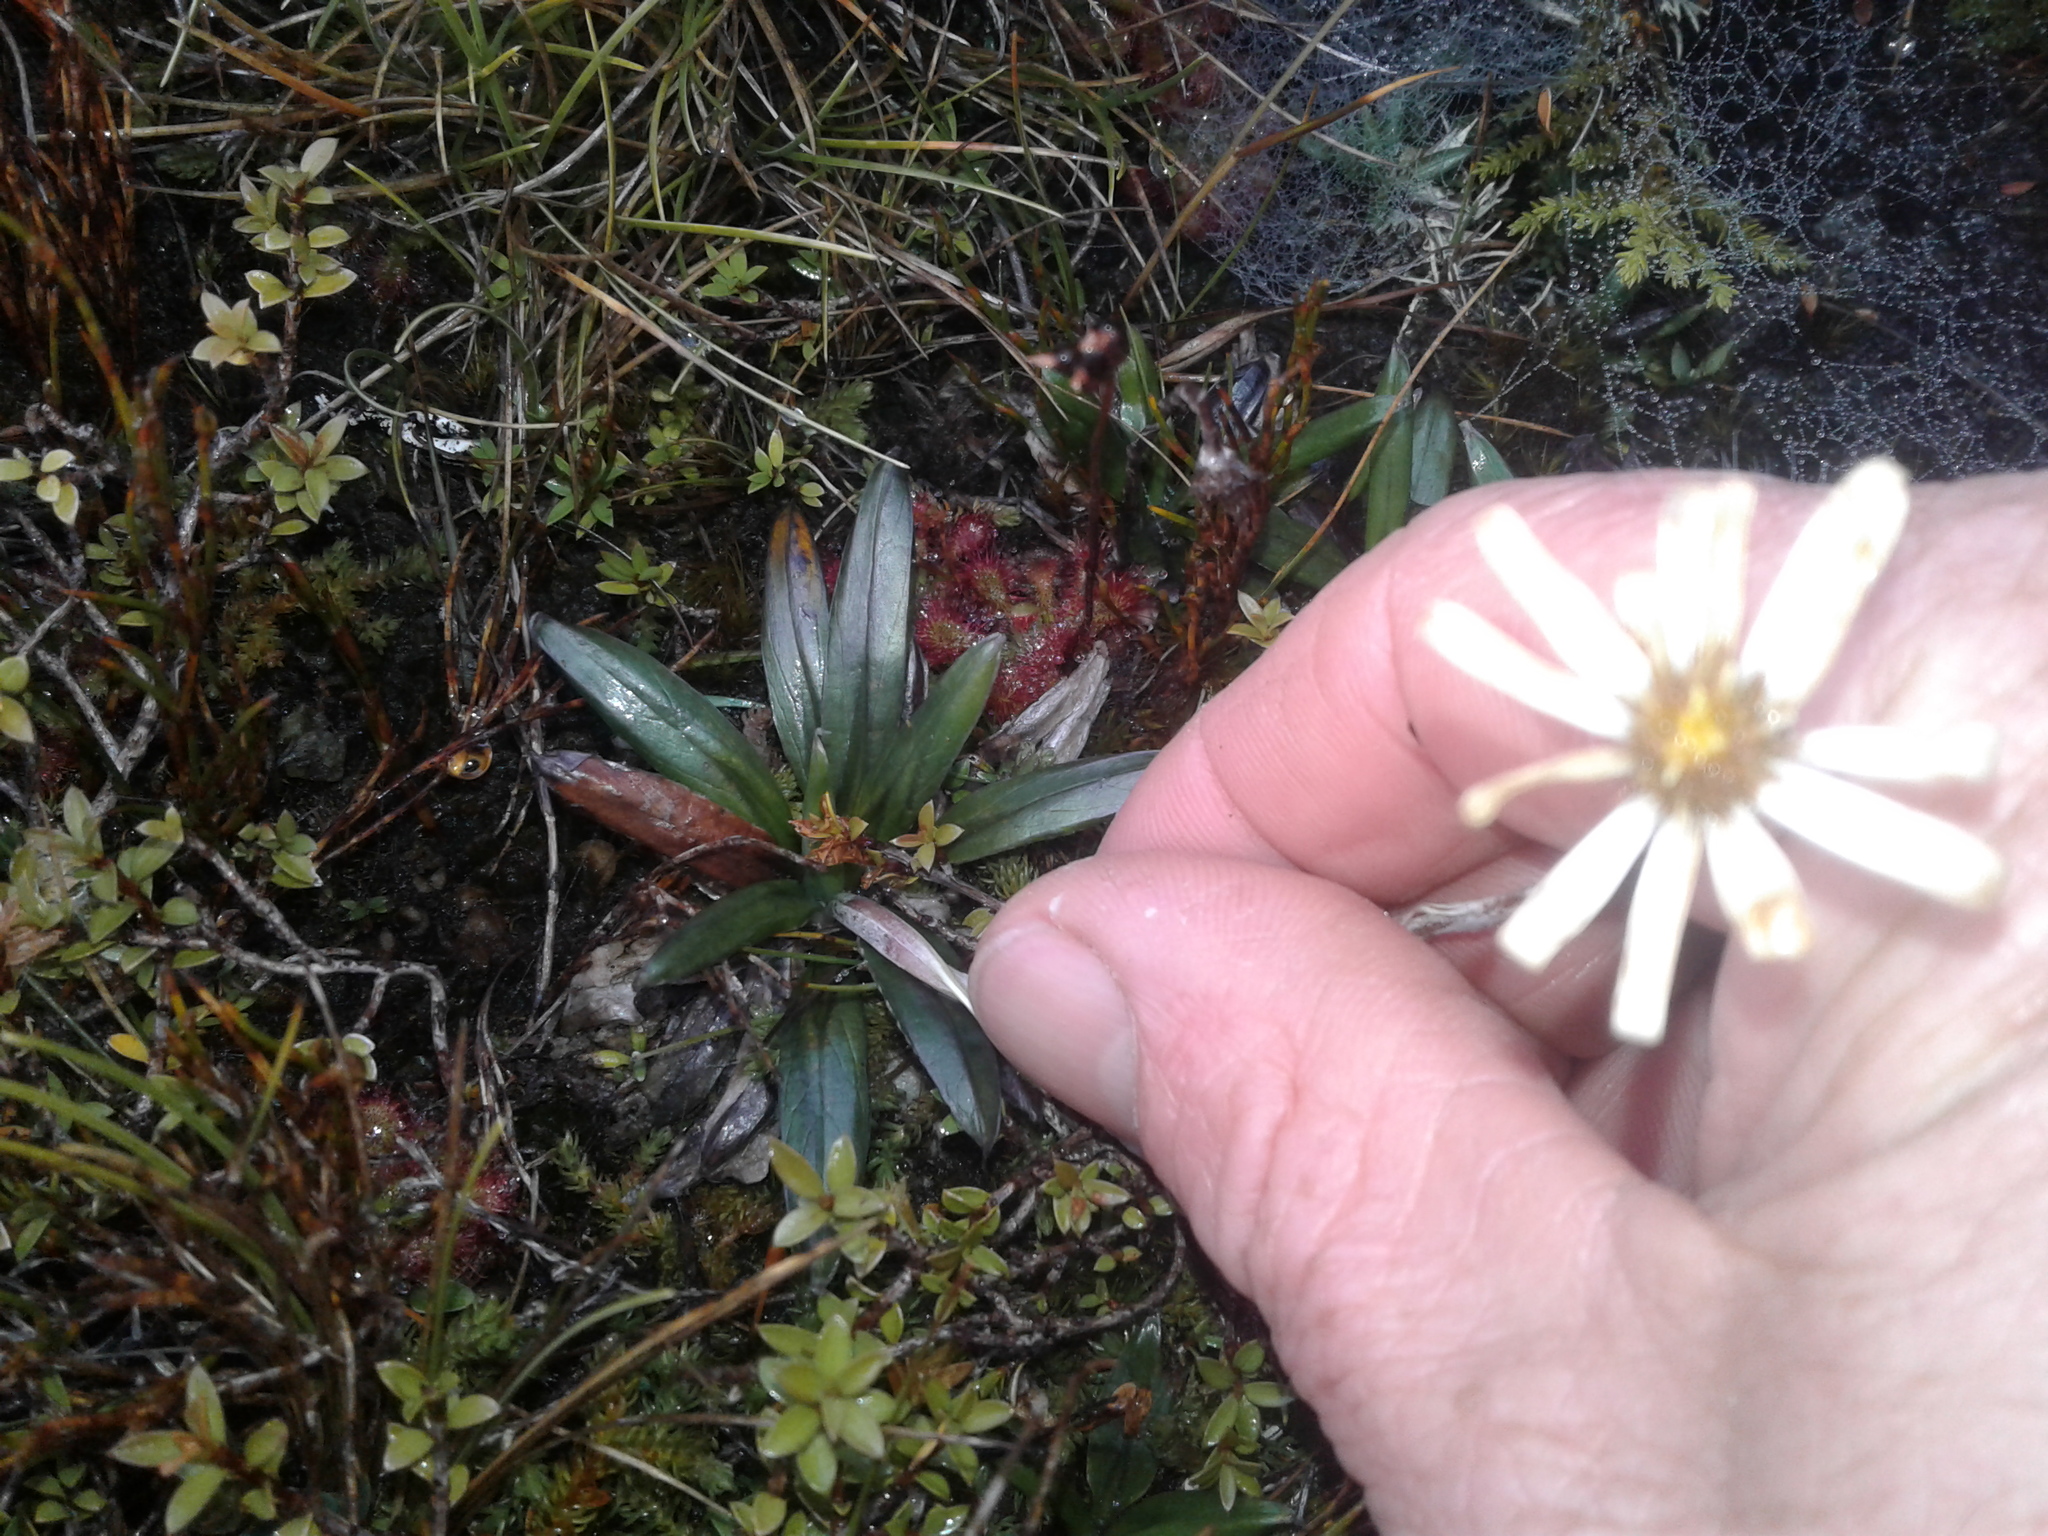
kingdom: Plantae
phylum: Tracheophyta
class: Magnoliopsida
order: Asterales
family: Asteraceae
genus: Celmisia
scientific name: Celmisia dubia
